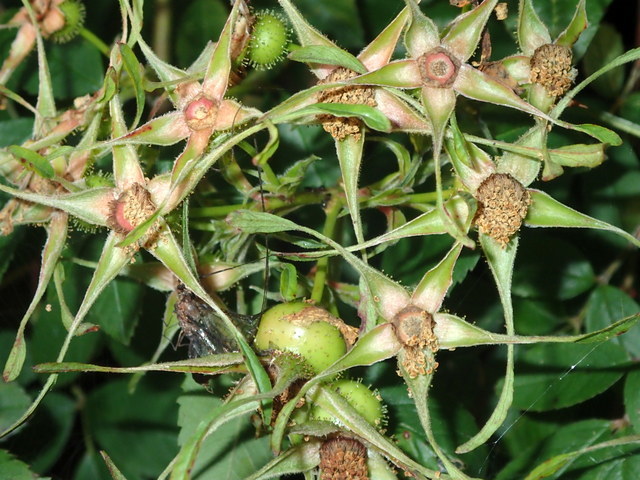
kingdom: Plantae
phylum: Tracheophyta
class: Magnoliopsida
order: Rosales
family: Rosaceae
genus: Rosa
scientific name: Rosa palustris
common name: Swamp rose
